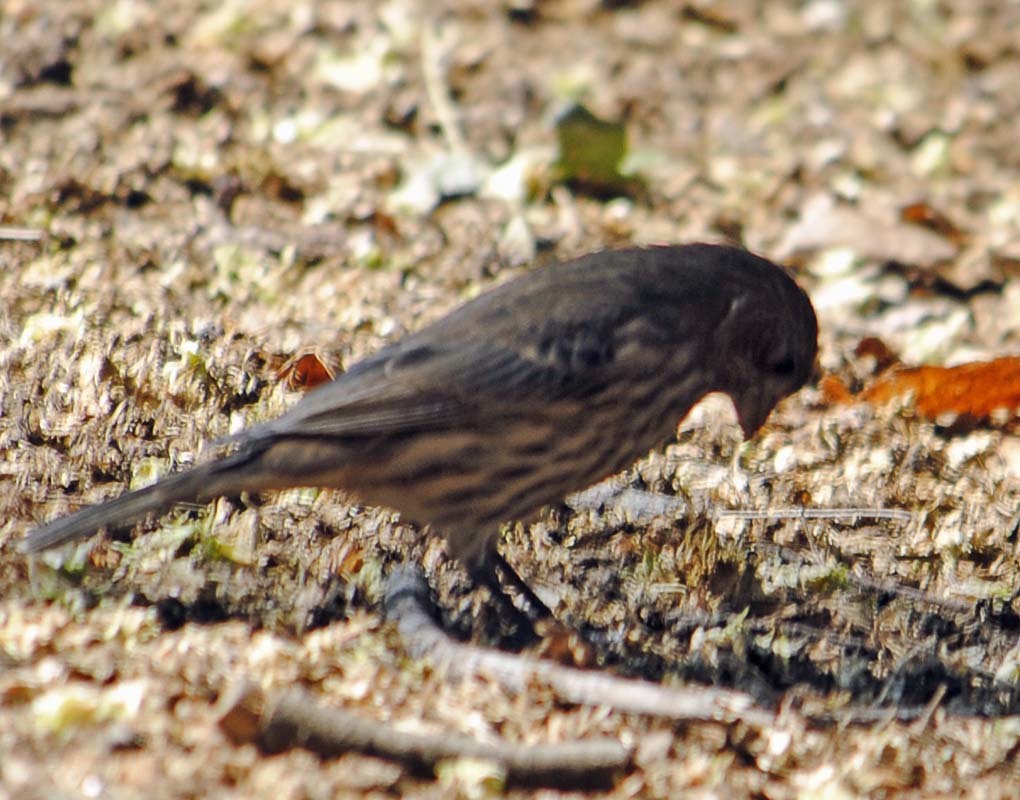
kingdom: Animalia
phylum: Chordata
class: Aves
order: Passeriformes
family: Fringillidae
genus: Haemorhous
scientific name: Haemorhous mexicanus
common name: House finch
